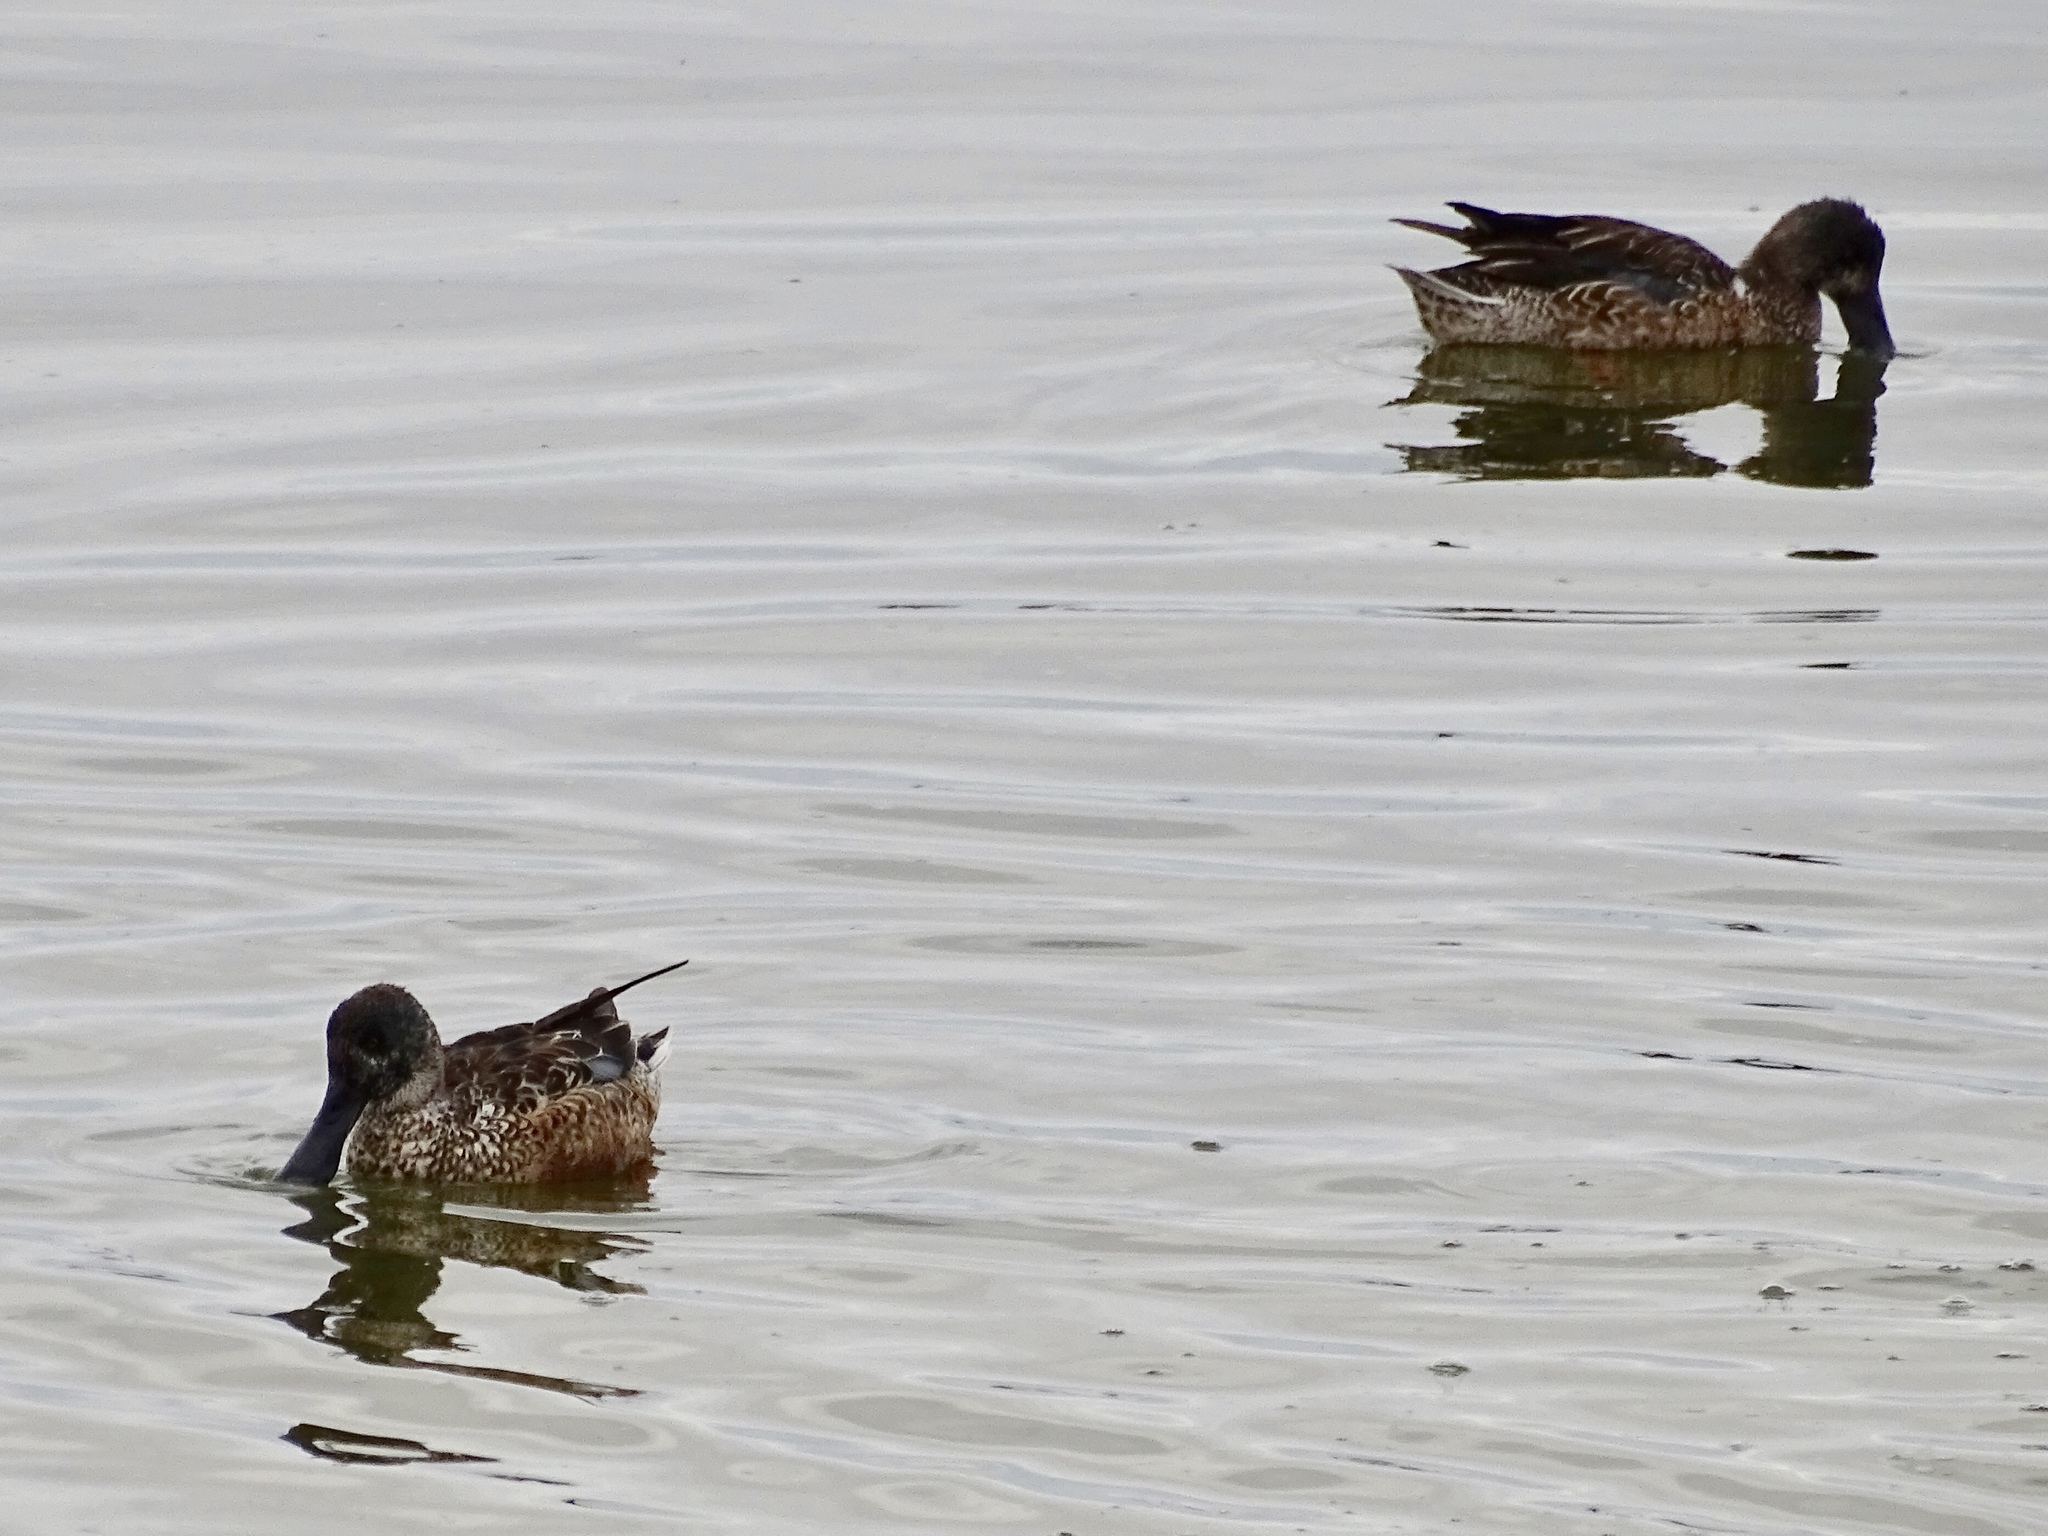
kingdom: Animalia
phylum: Chordata
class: Aves
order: Anseriformes
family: Anatidae
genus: Spatula
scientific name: Spatula clypeata
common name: Northern shoveler
